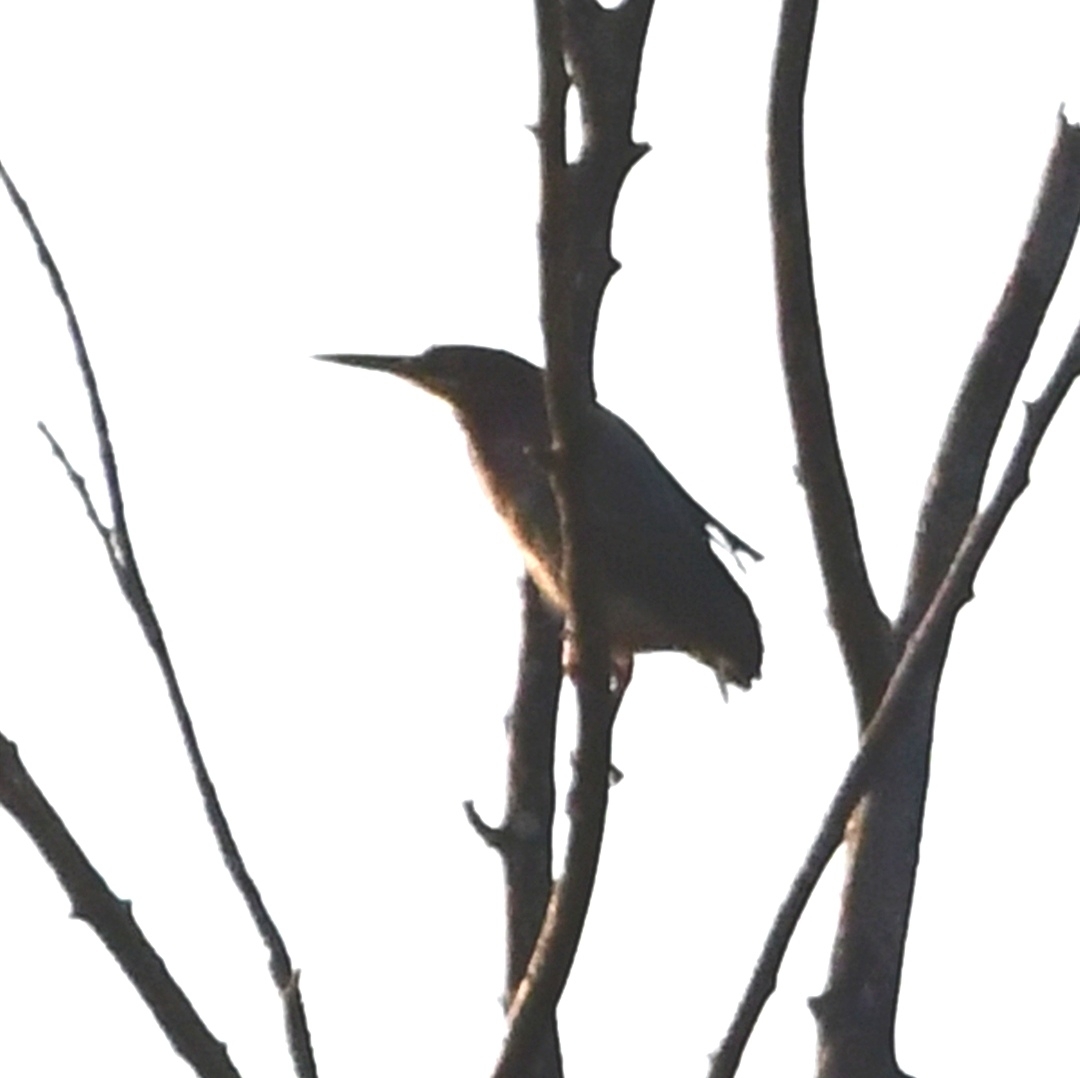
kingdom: Animalia
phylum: Chordata
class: Aves
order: Pelecaniformes
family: Ardeidae
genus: Butorides
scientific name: Butorides virescens
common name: Green heron
